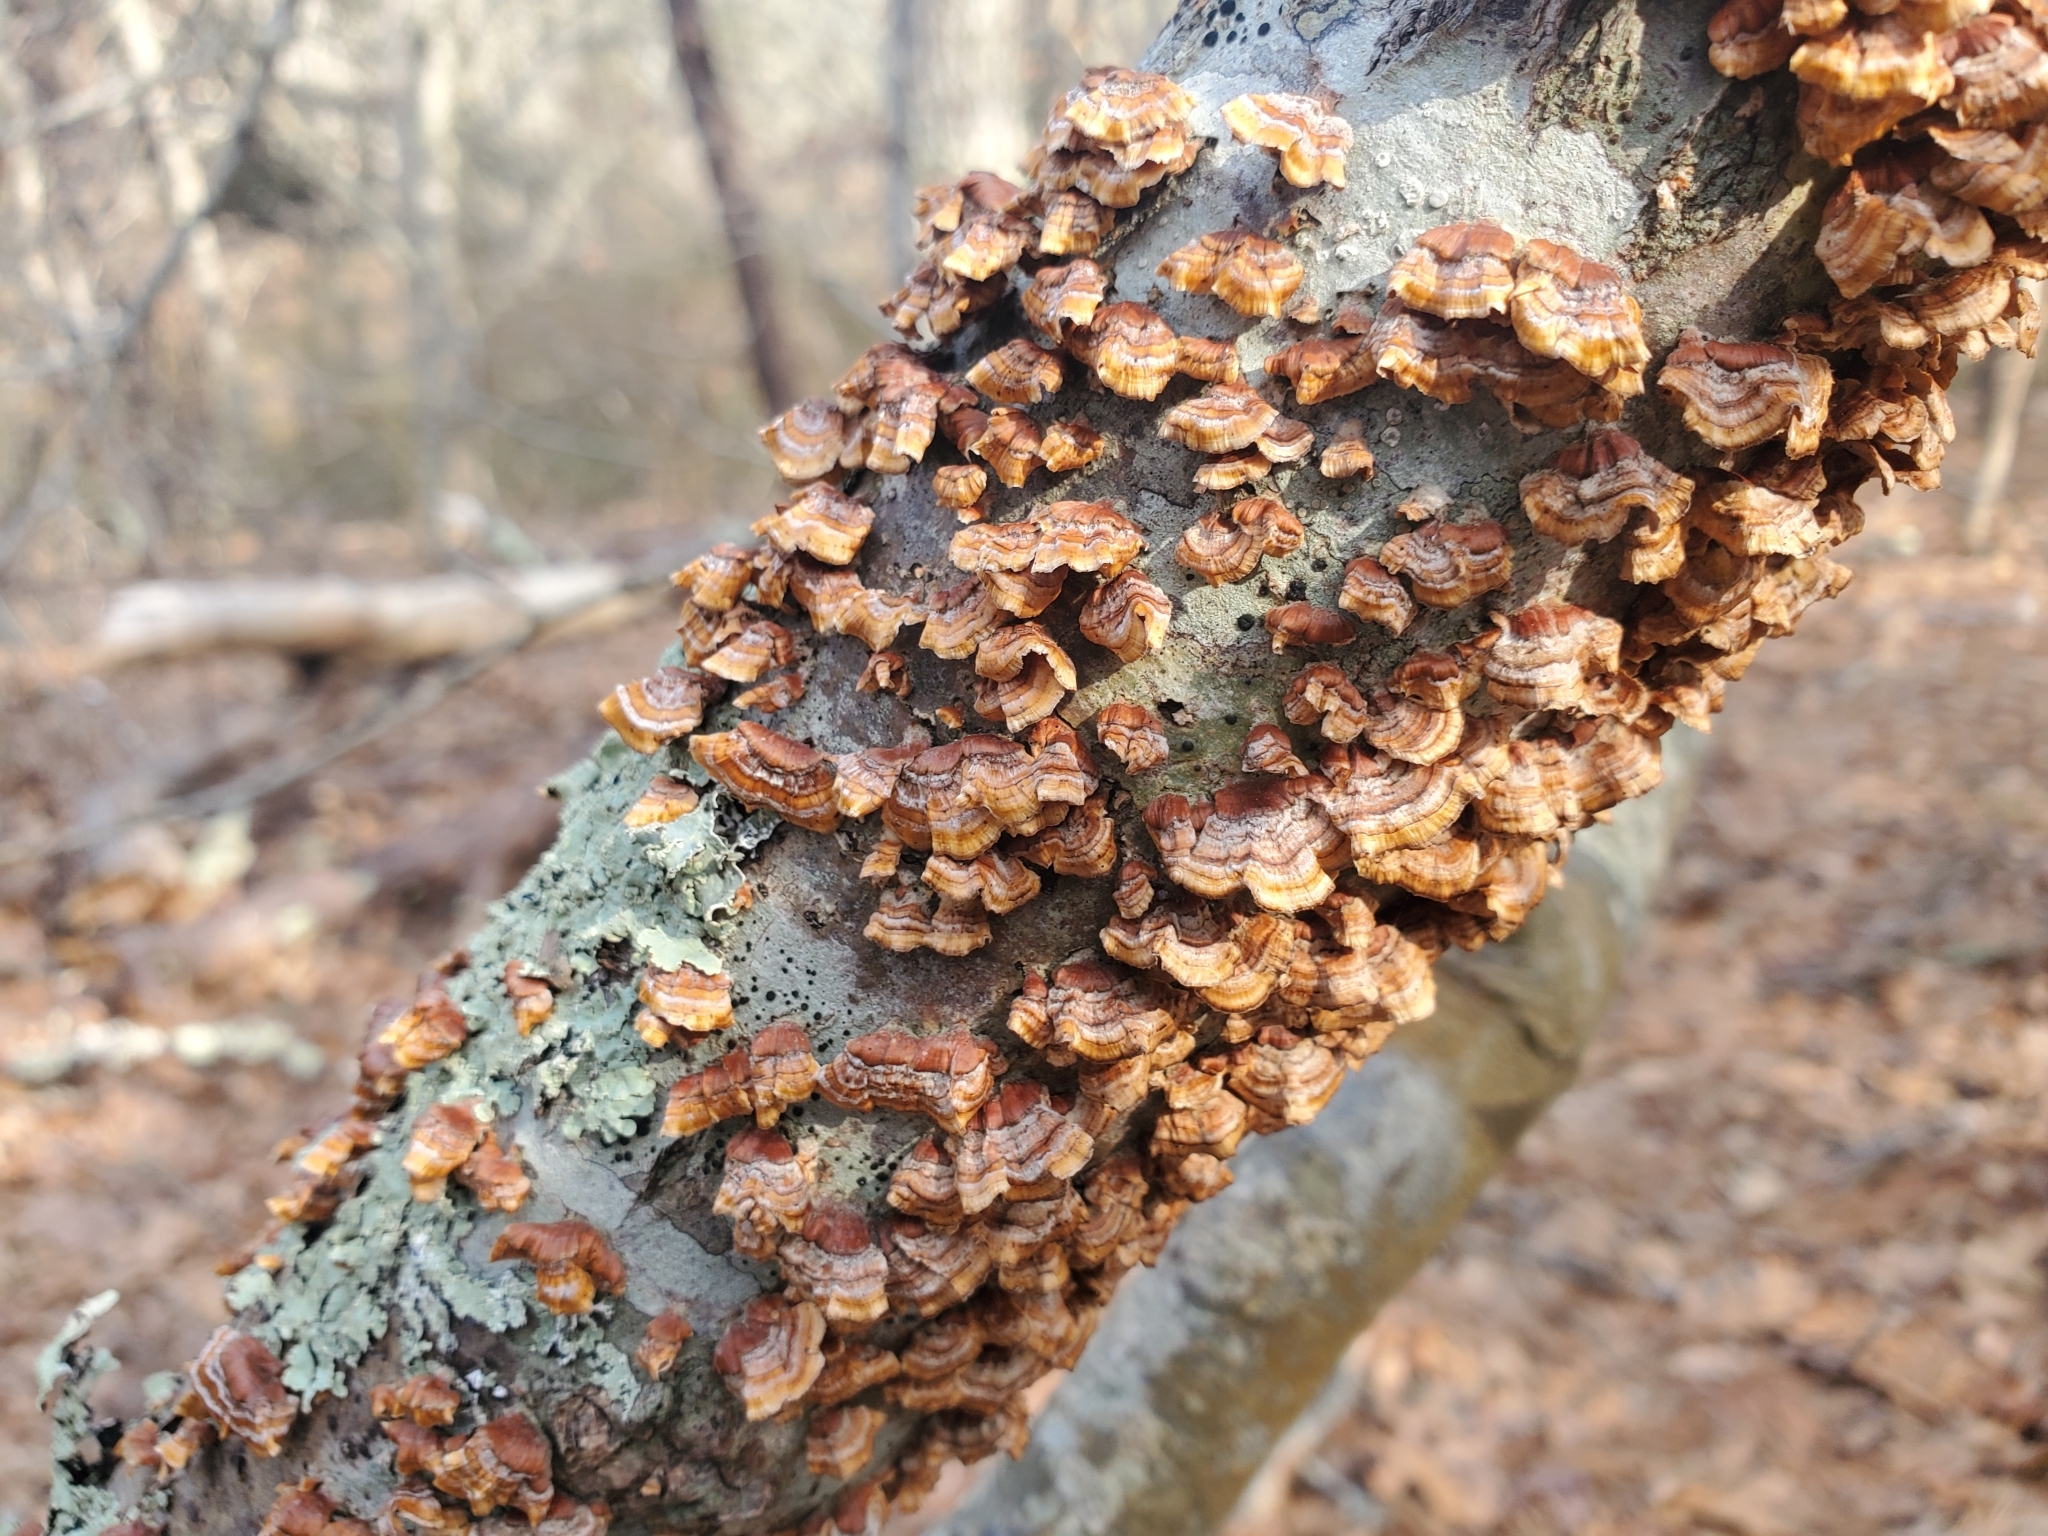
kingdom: Fungi
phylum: Basidiomycota
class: Agaricomycetes
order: Russulales
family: Stereaceae
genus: Stereum
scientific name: Stereum complicatum
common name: Crowded parchment
